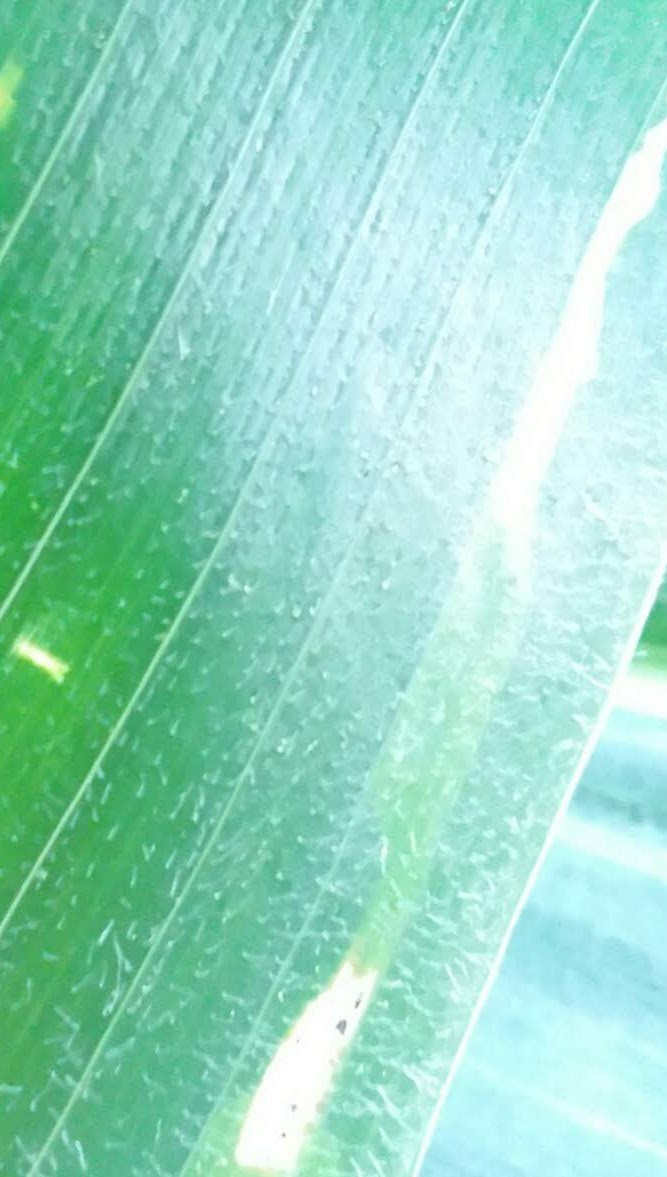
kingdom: Animalia
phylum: Arthropoda
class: Insecta
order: Diptera
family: Agromyzidae
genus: Agromyza
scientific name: Agromyza parvicornis
